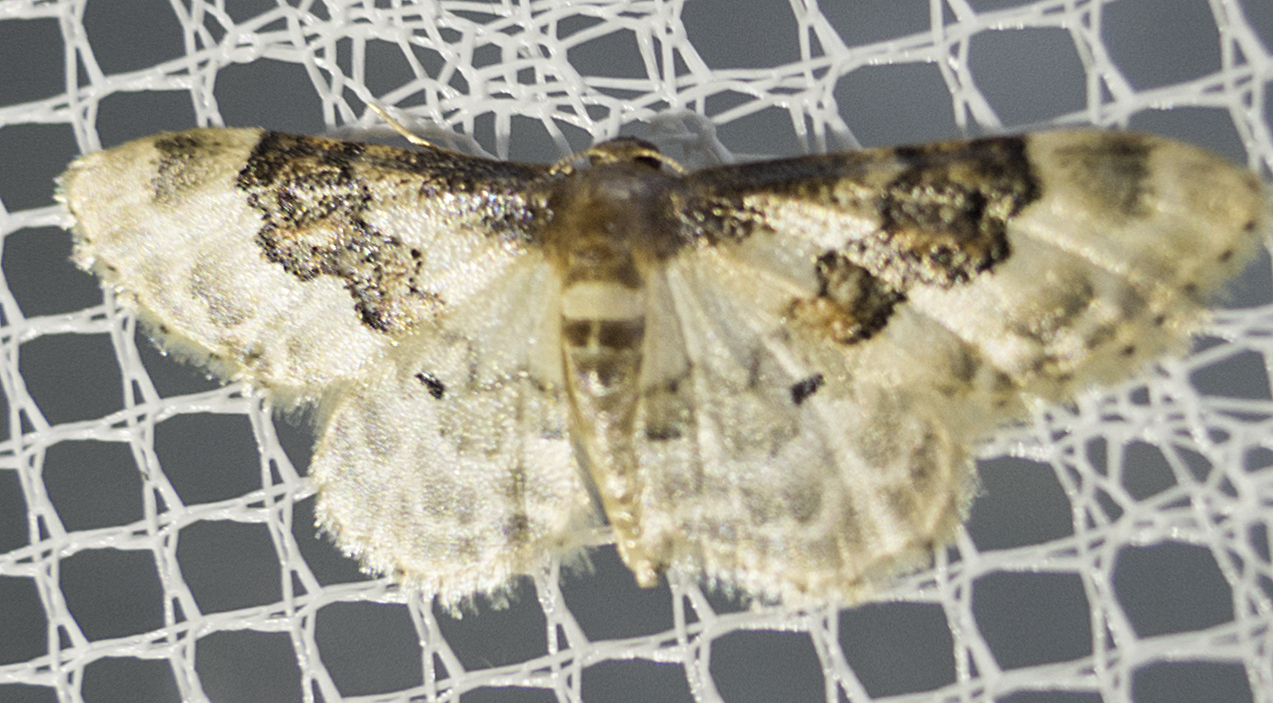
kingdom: Animalia
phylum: Arthropoda
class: Insecta
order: Lepidoptera
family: Geometridae
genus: Idaea
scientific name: Idaea rusticata
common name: Least carpet
